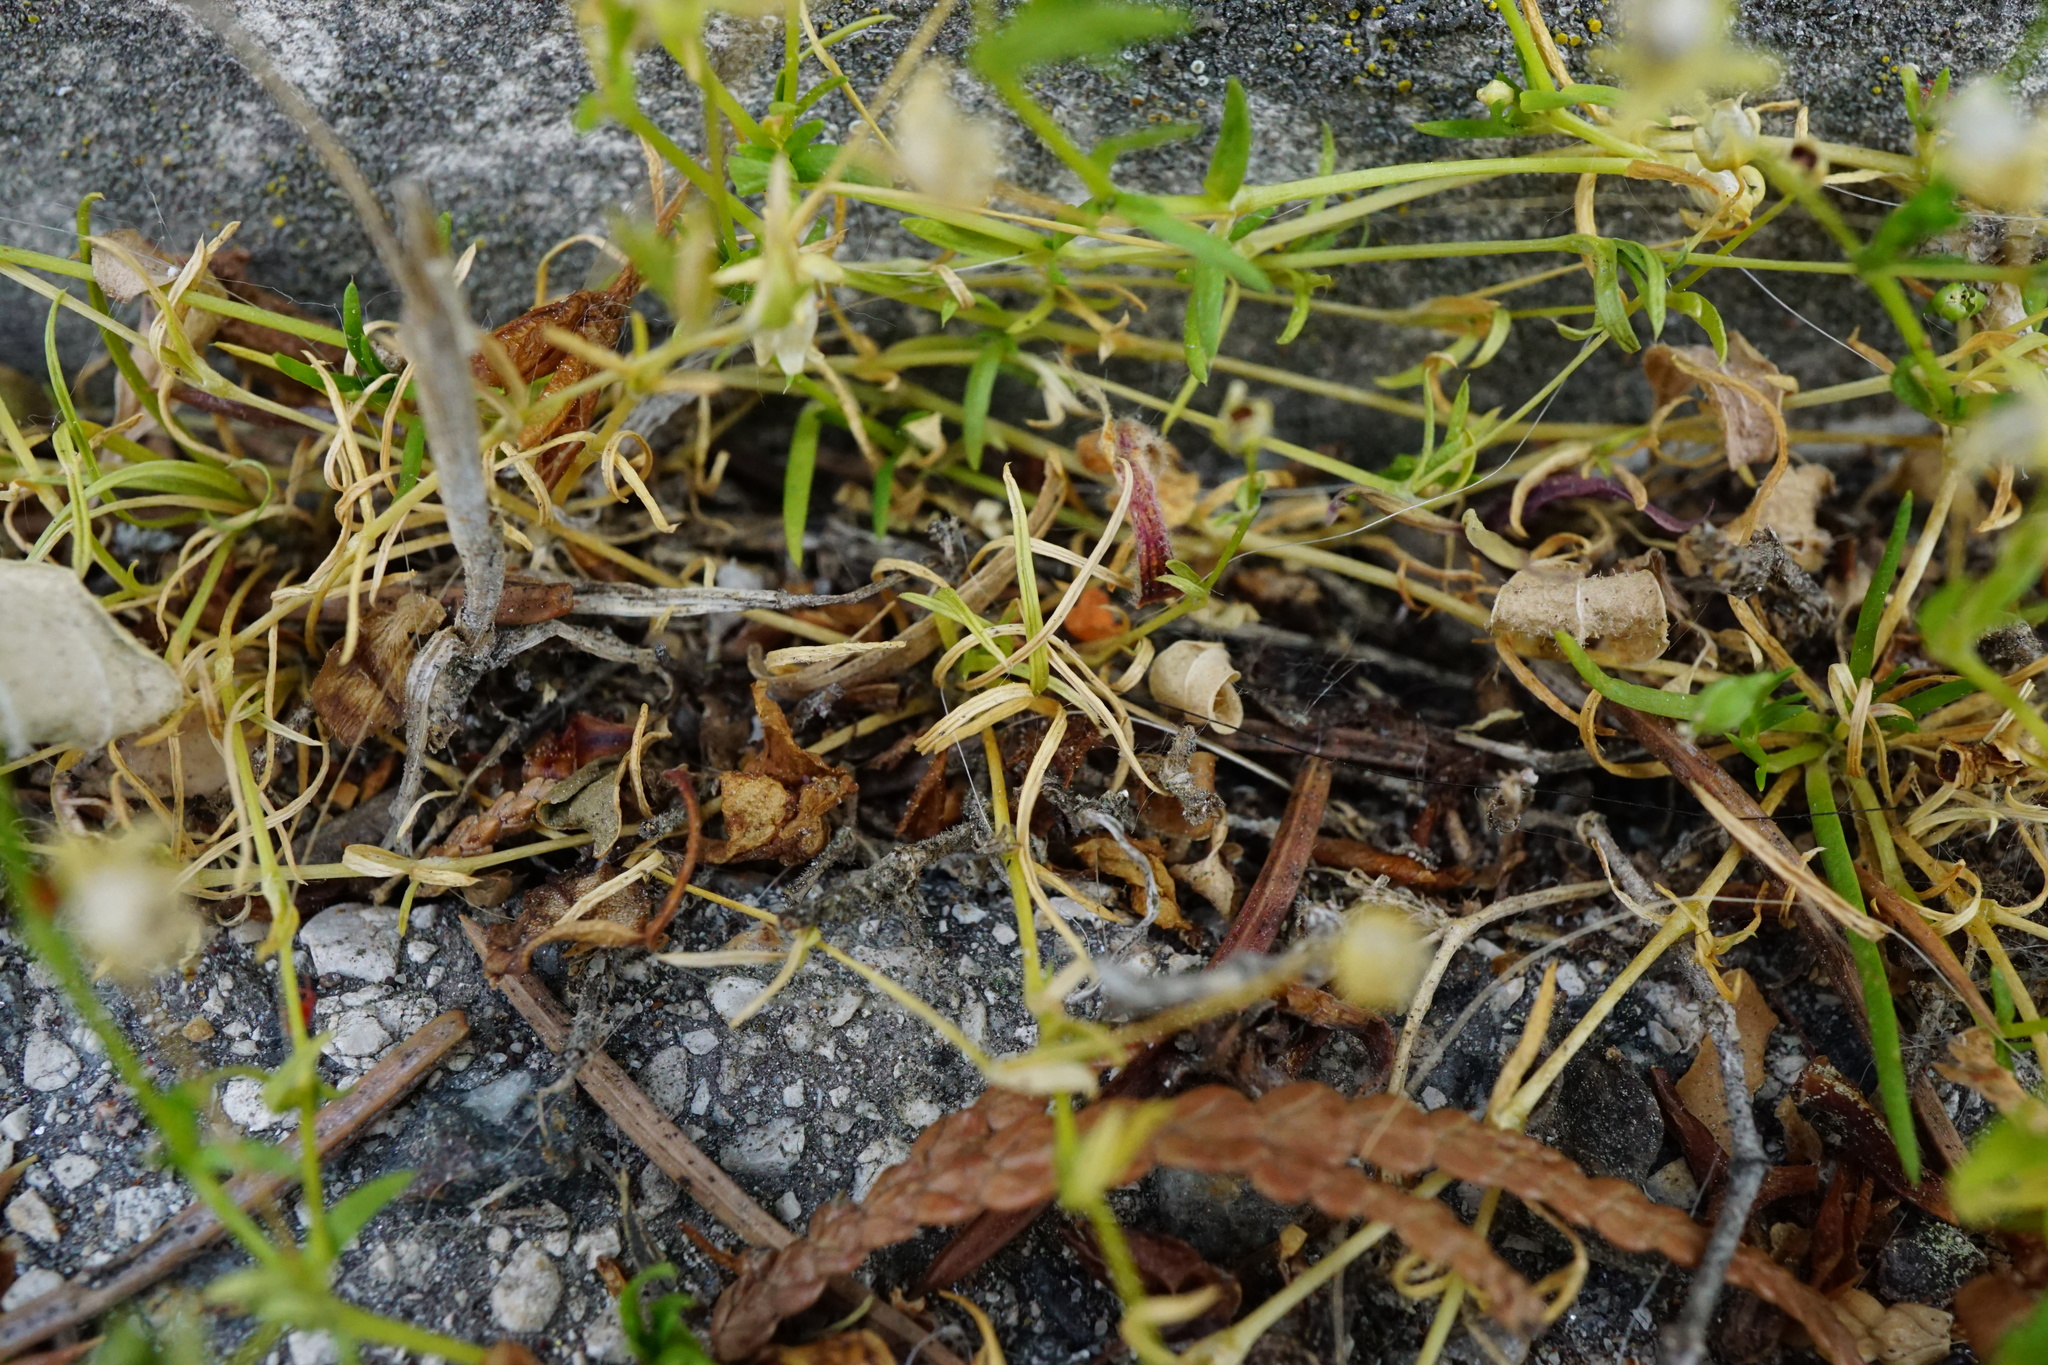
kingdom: Plantae
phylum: Tracheophyta
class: Magnoliopsida
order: Caryophyllales
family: Caryophyllaceae
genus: Sagina
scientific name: Sagina procumbens
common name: Procumbent pearlwort
